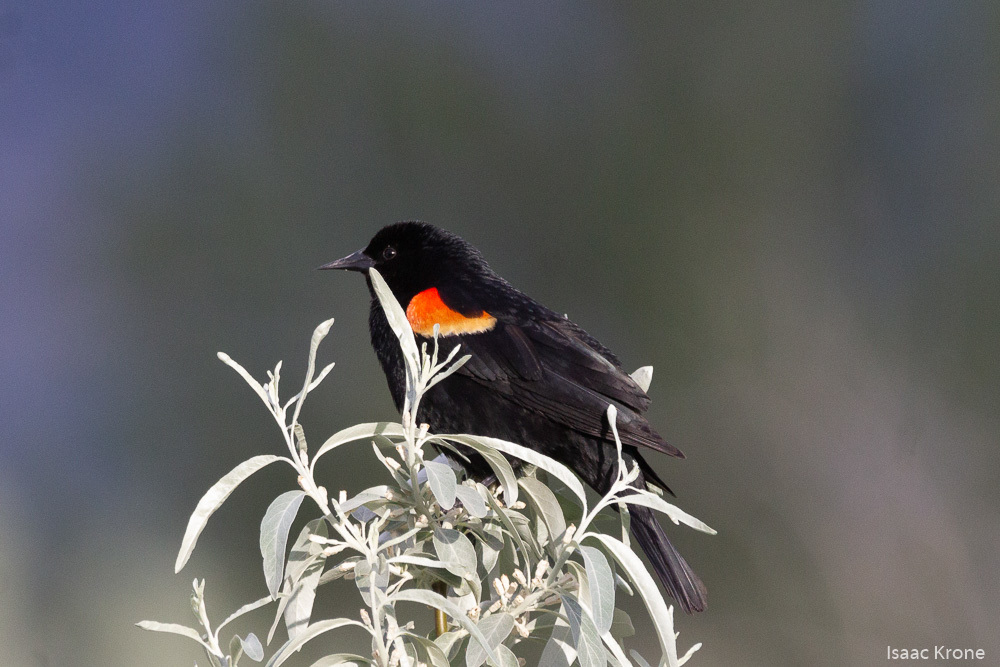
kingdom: Animalia
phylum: Chordata
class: Aves
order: Passeriformes
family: Icteridae
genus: Agelaius
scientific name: Agelaius phoeniceus
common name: Red-winged blackbird
